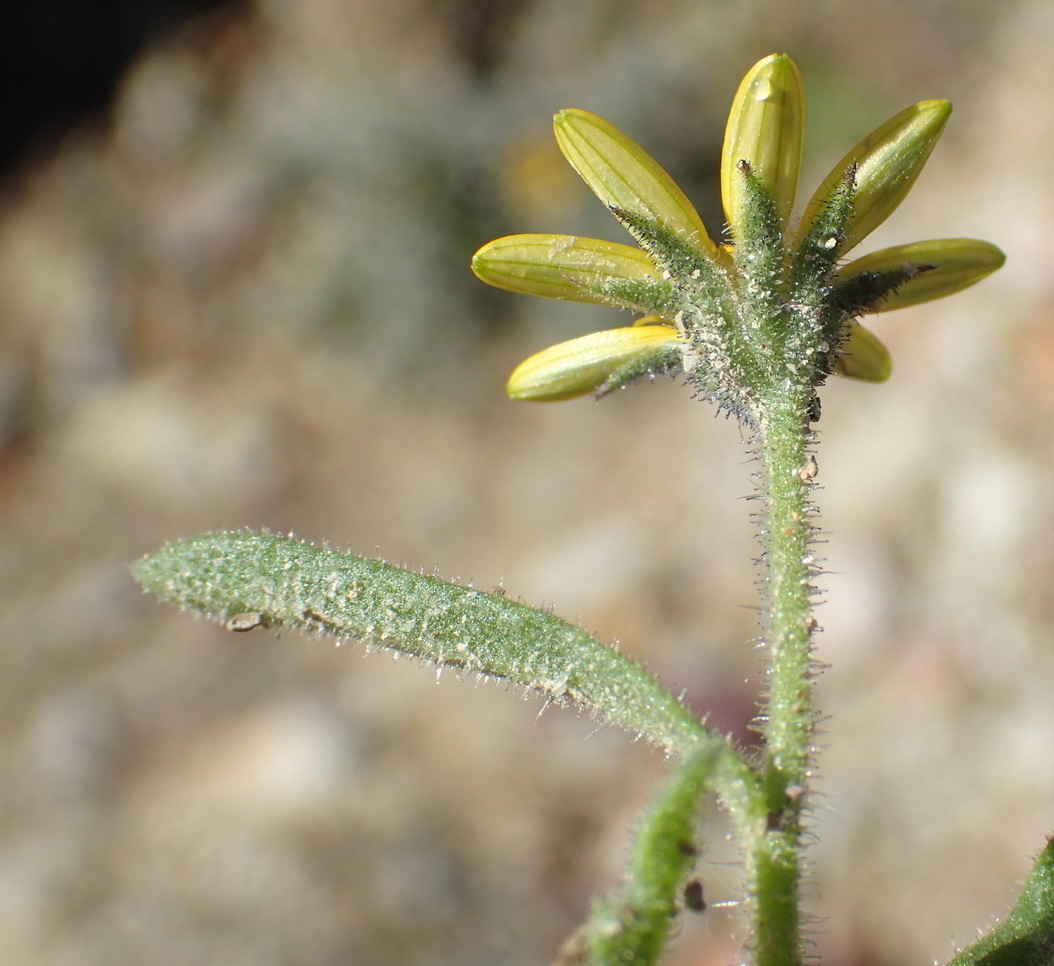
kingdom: Plantae
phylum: Tracheophyta
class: Magnoliopsida
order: Asterales
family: Asteraceae
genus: Osteospermum
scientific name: Osteospermum calendulaceum
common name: Stinking roger
